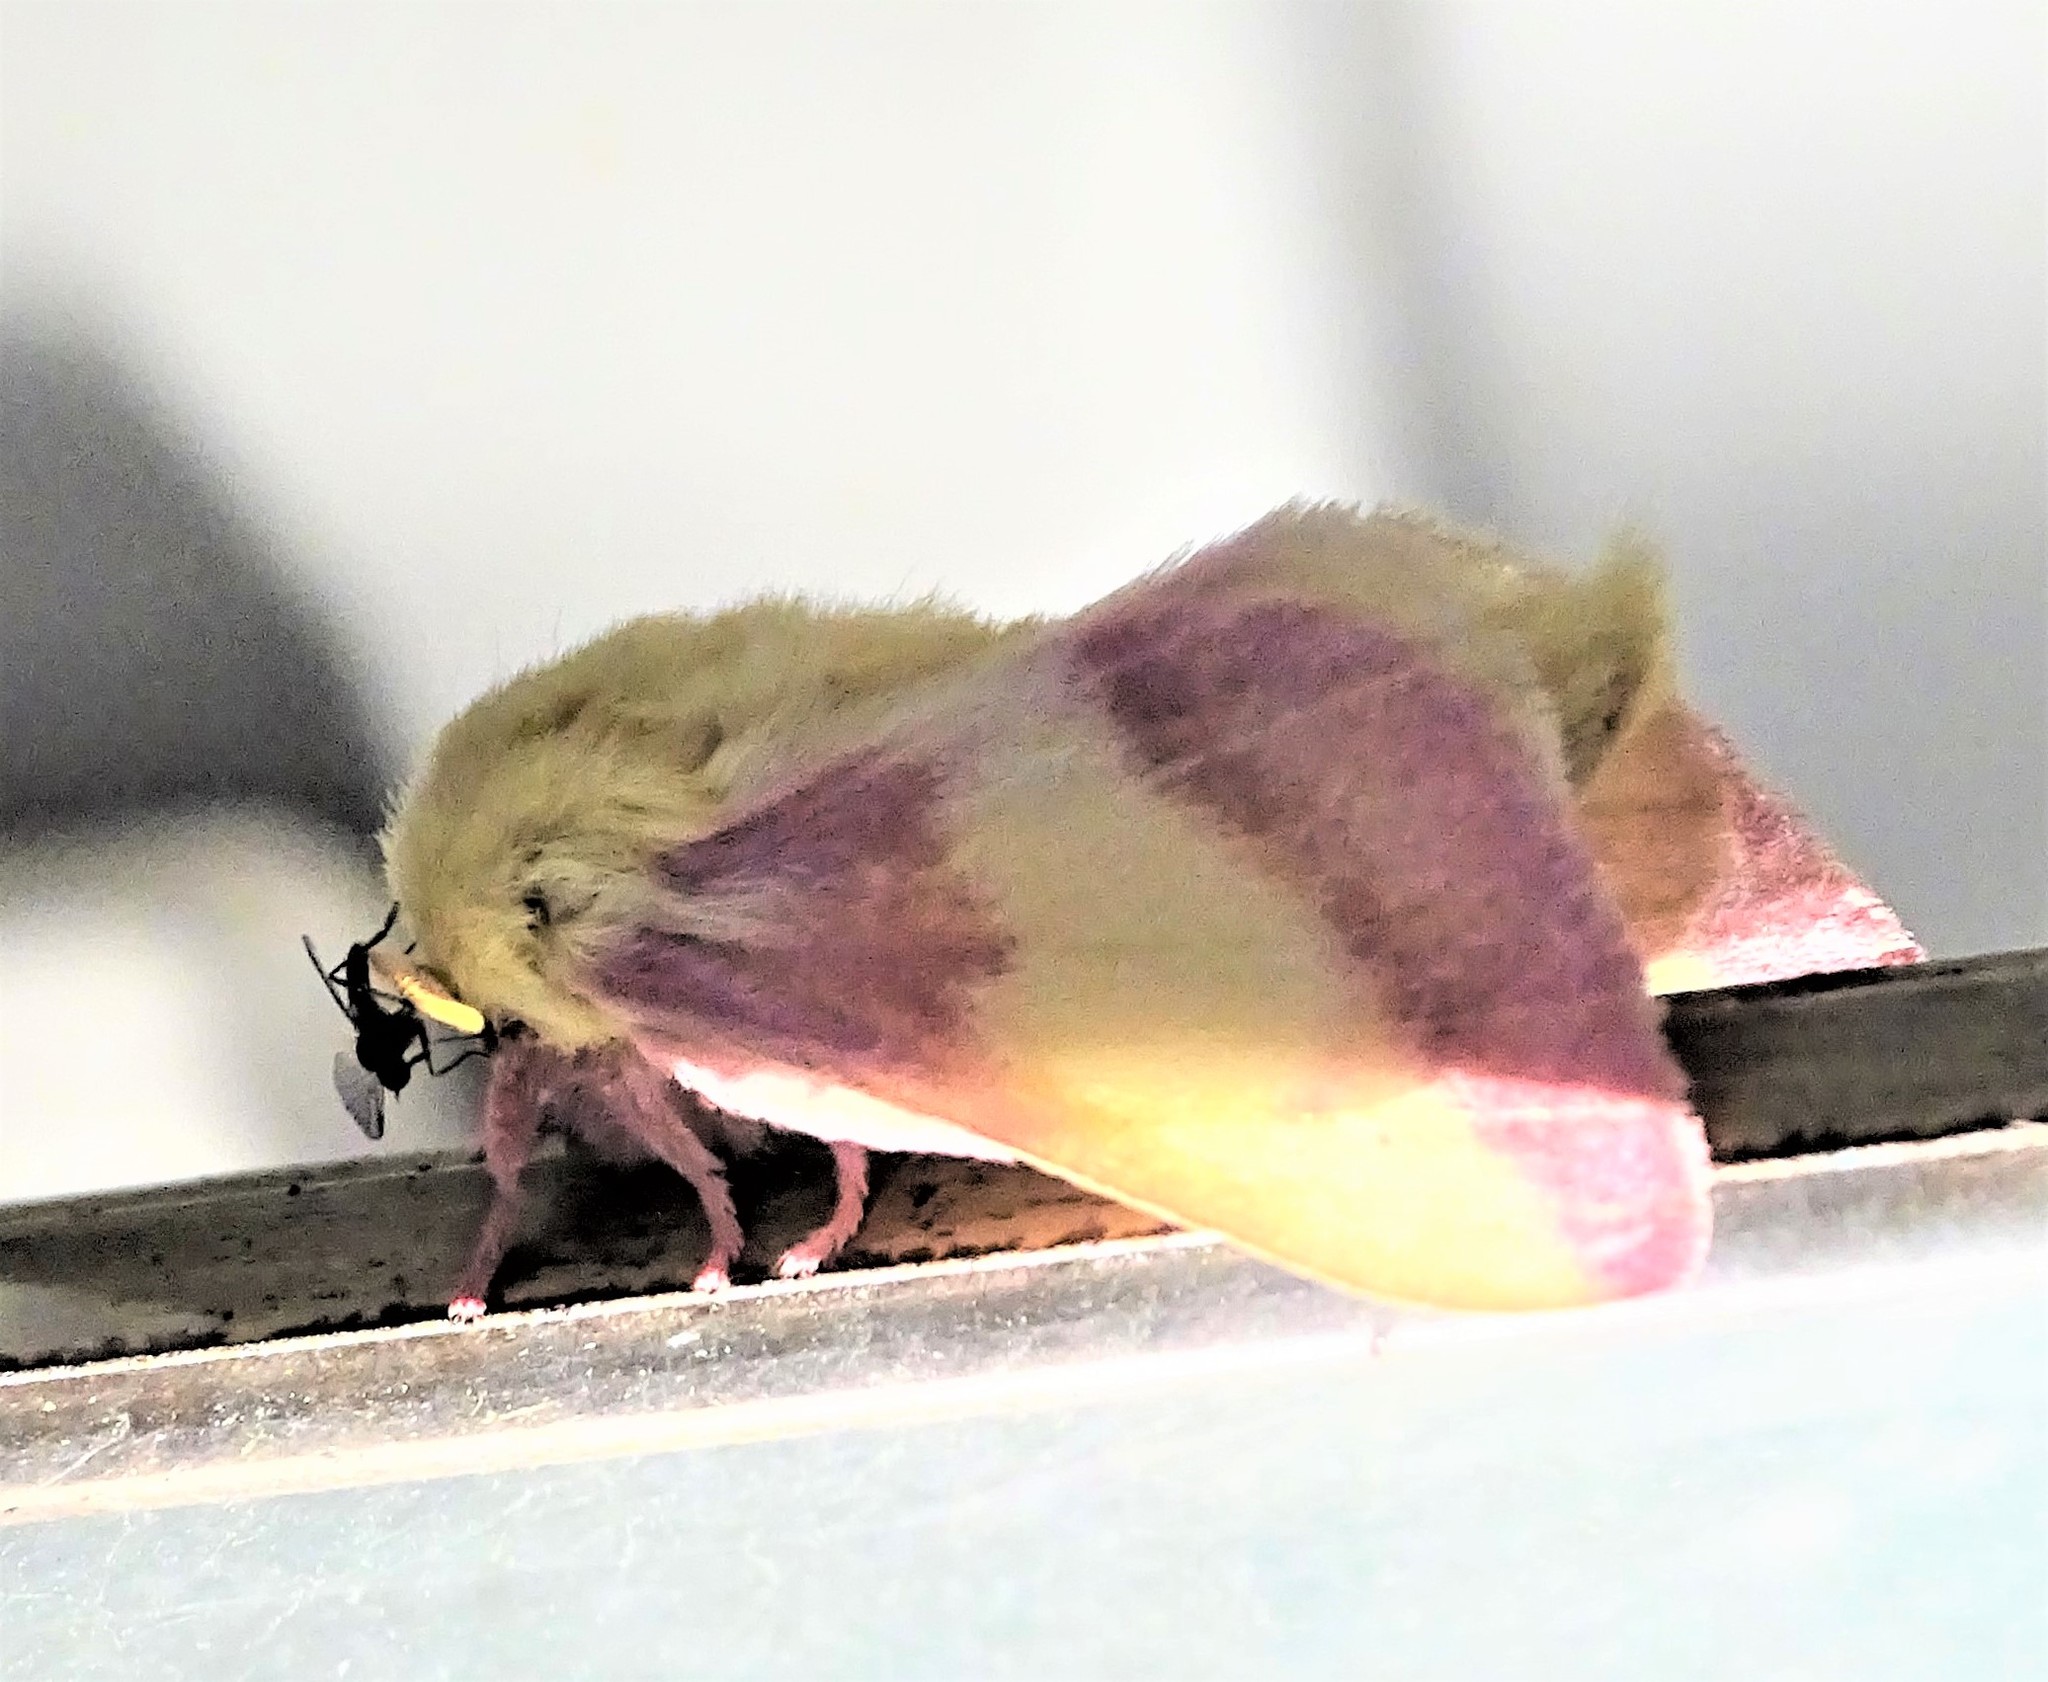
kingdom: Animalia
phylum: Arthropoda
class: Insecta
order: Lepidoptera
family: Saturniidae
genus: Dryocampa
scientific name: Dryocampa rubicunda
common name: Rosy maple moth
